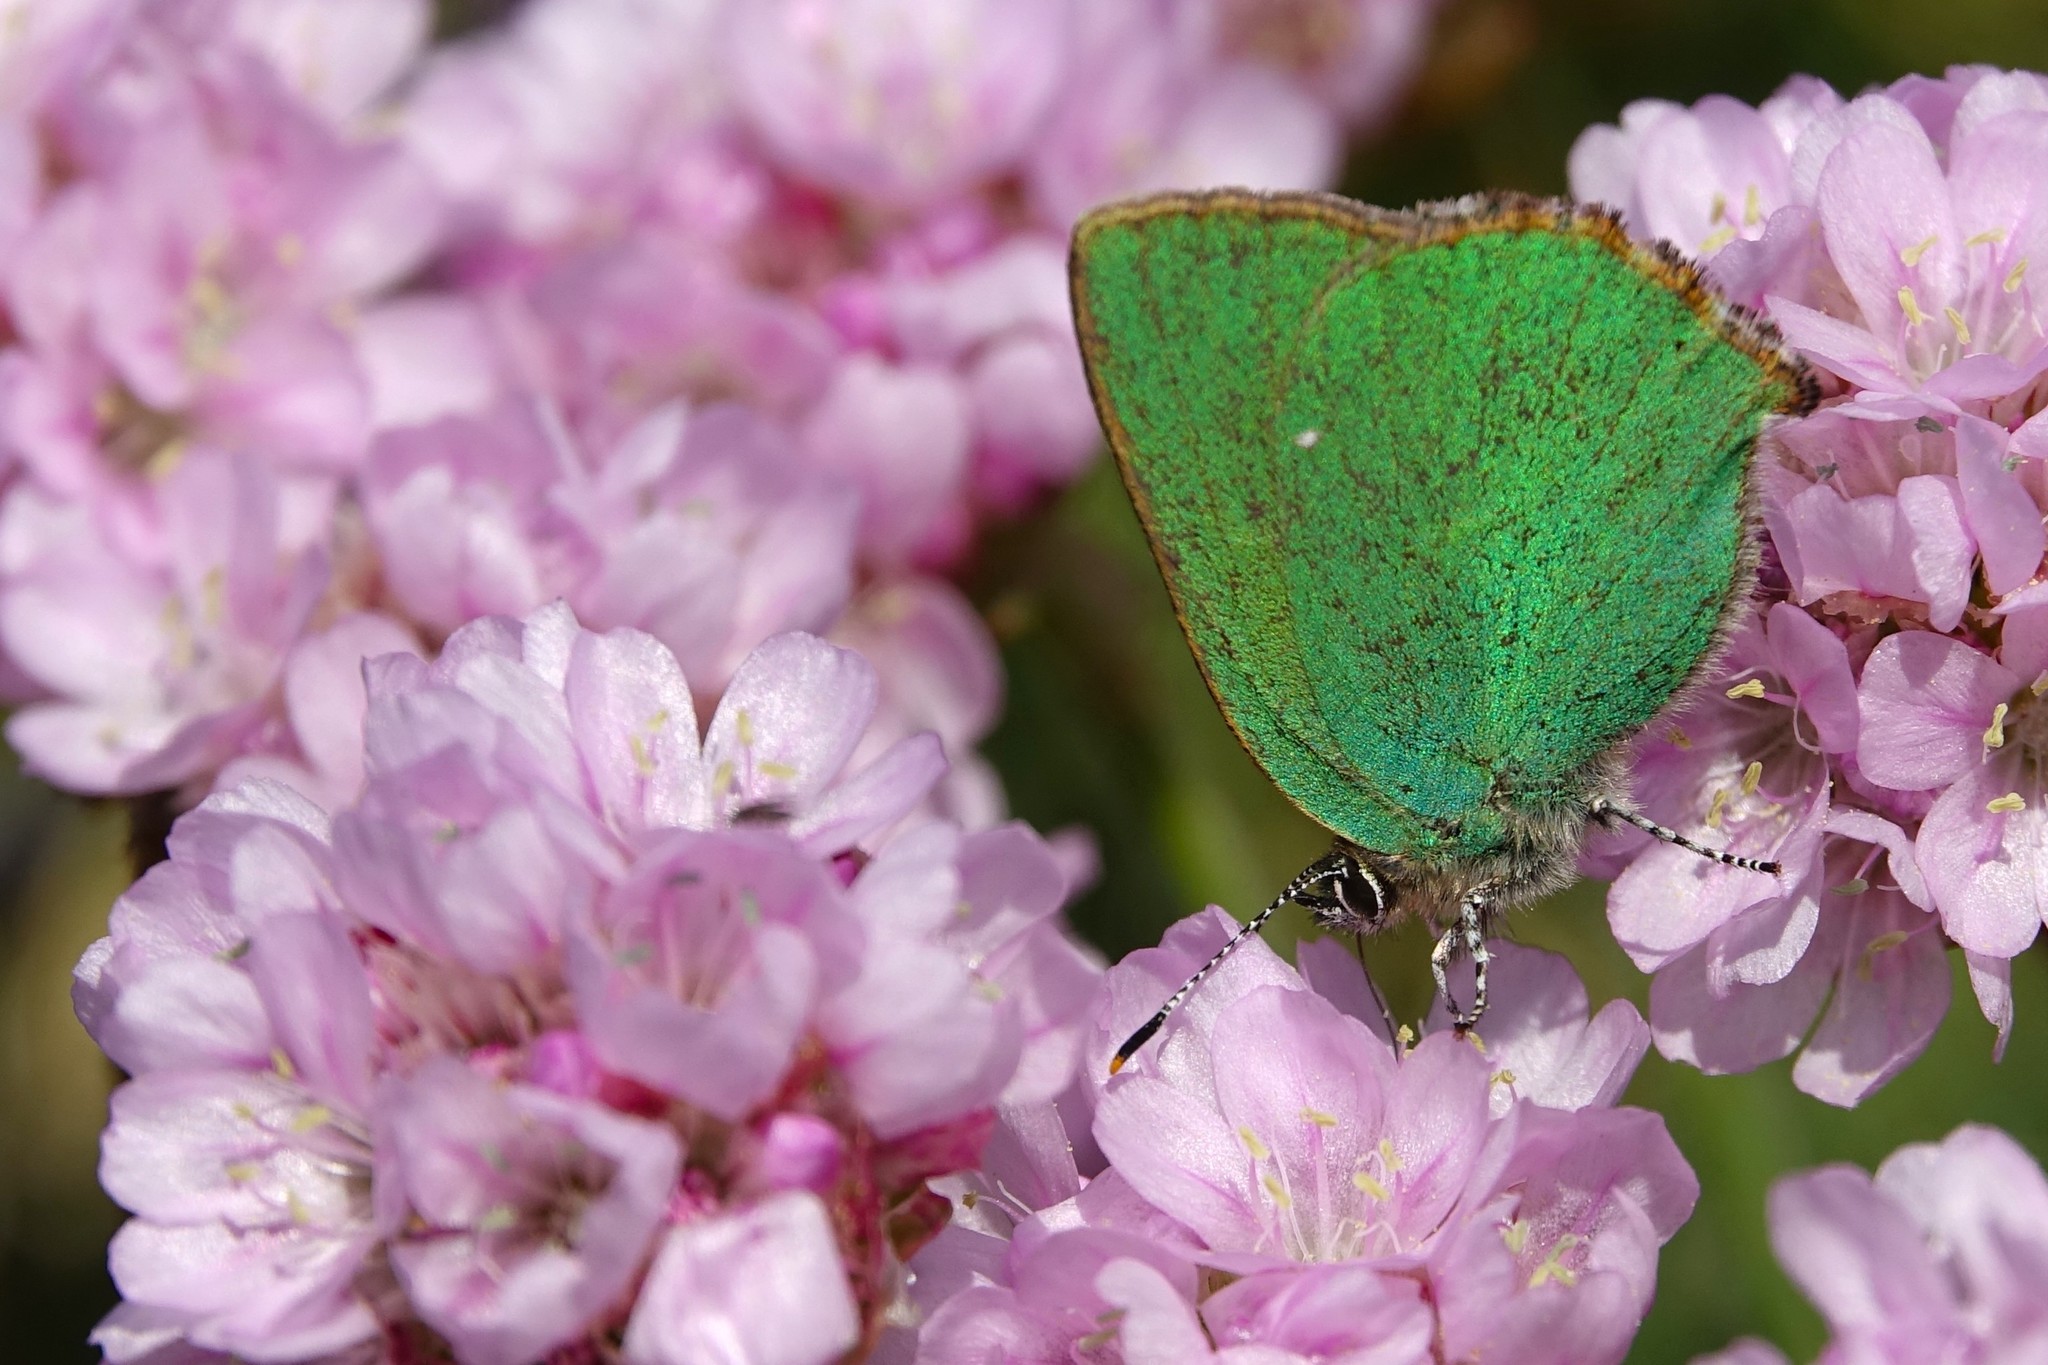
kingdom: Animalia
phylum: Arthropoda
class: Insecta
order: Lepidoptera
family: Lycaenidae
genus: Callophrys
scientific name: Callophrys rubi
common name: Green hairstreak
